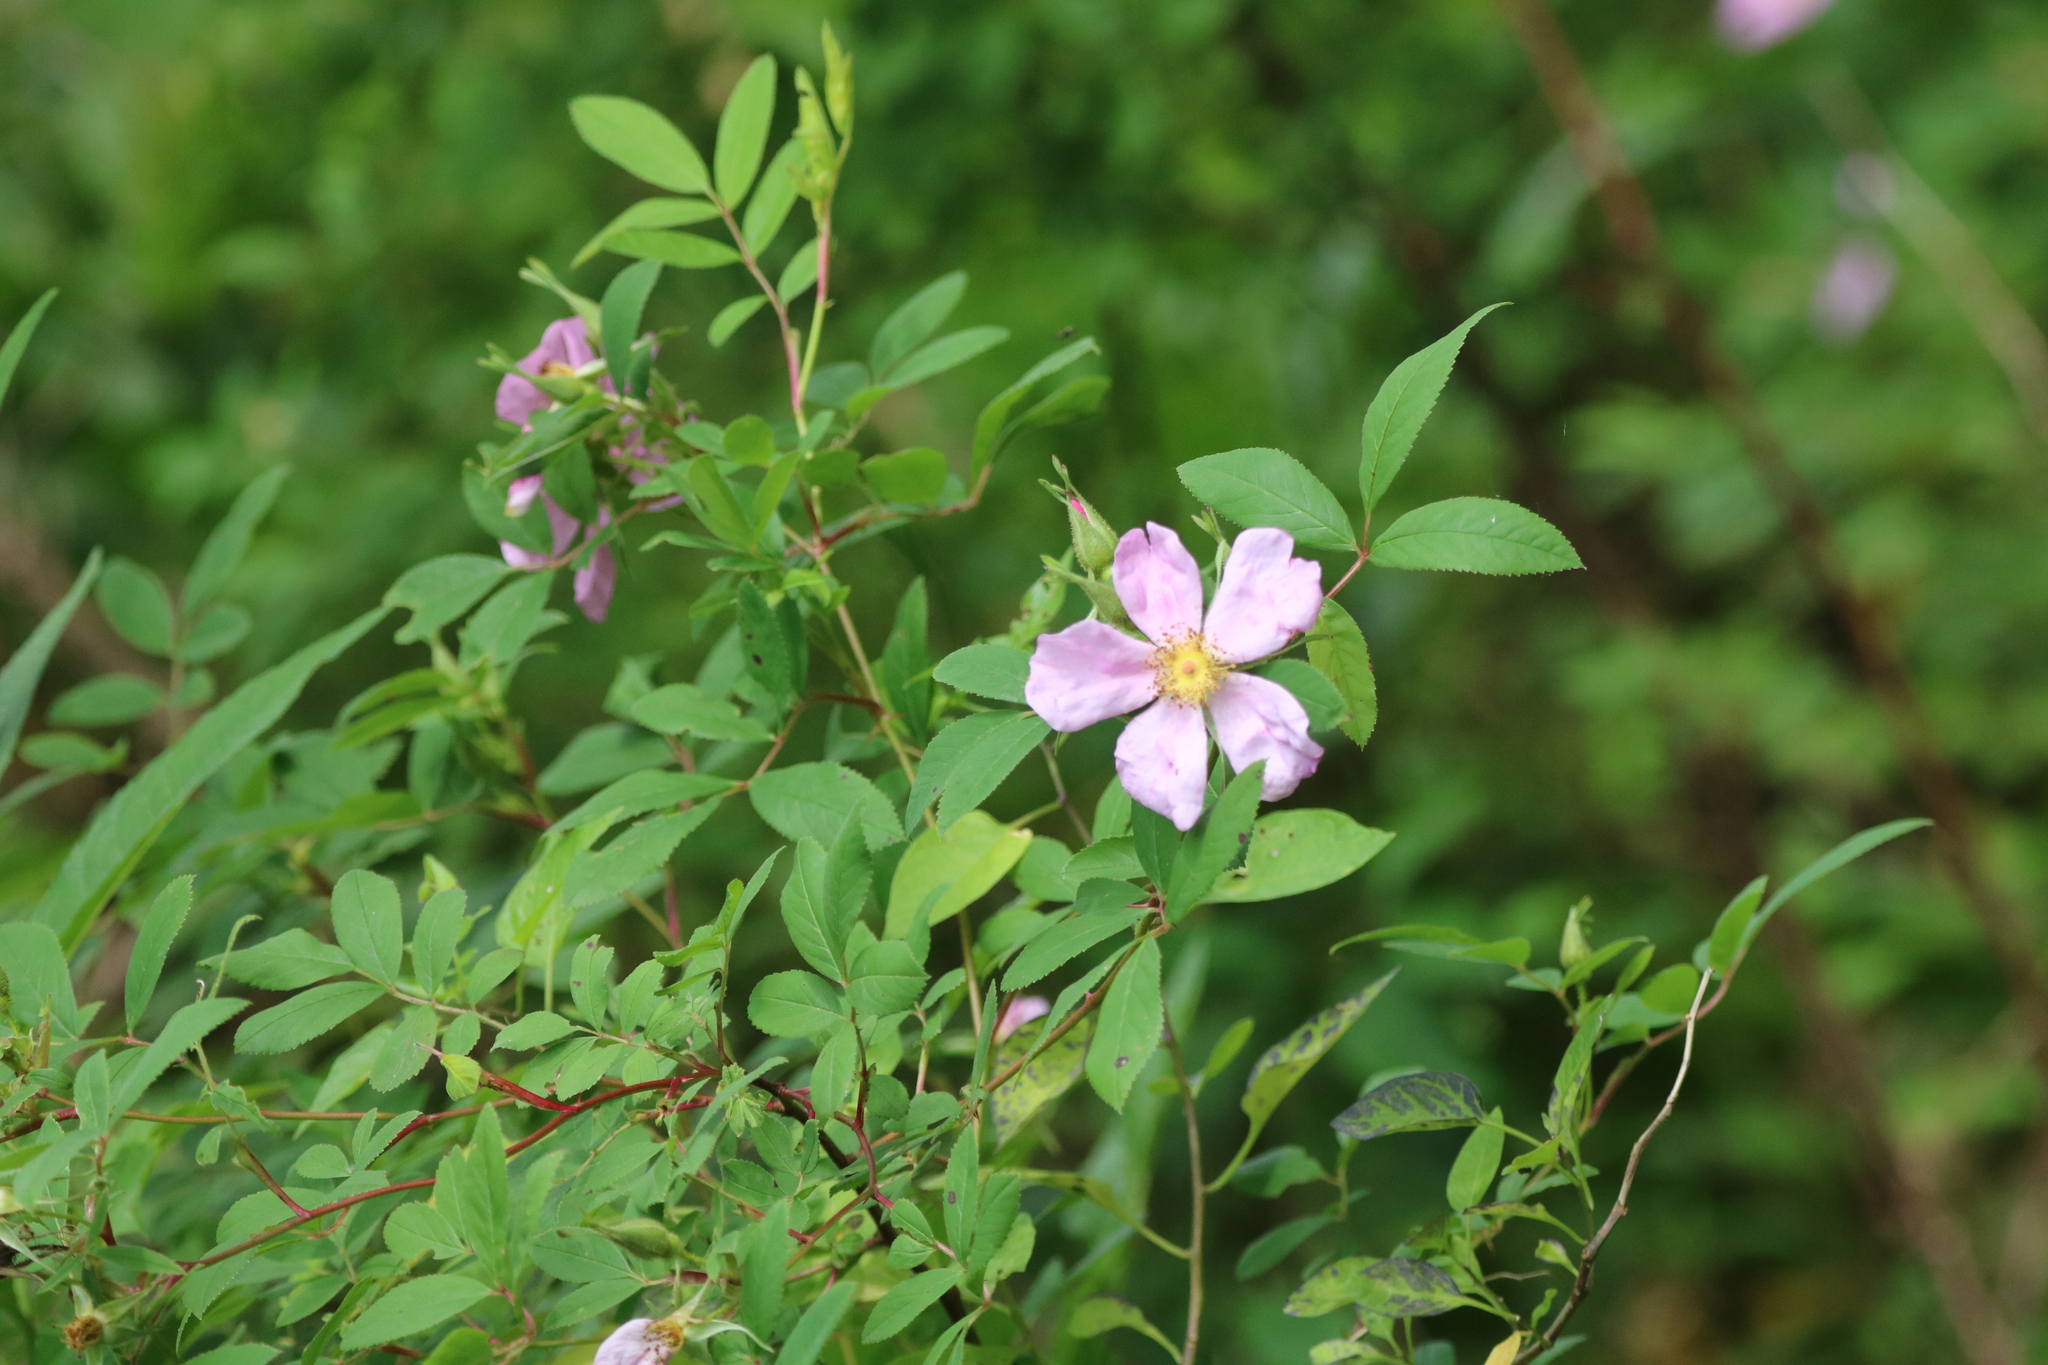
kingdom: Plantae
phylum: Tracheophyta
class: Magnoliopsida
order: Rosales
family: Rosaceae
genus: Rosa
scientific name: Rosa palustris
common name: Swamp rose
